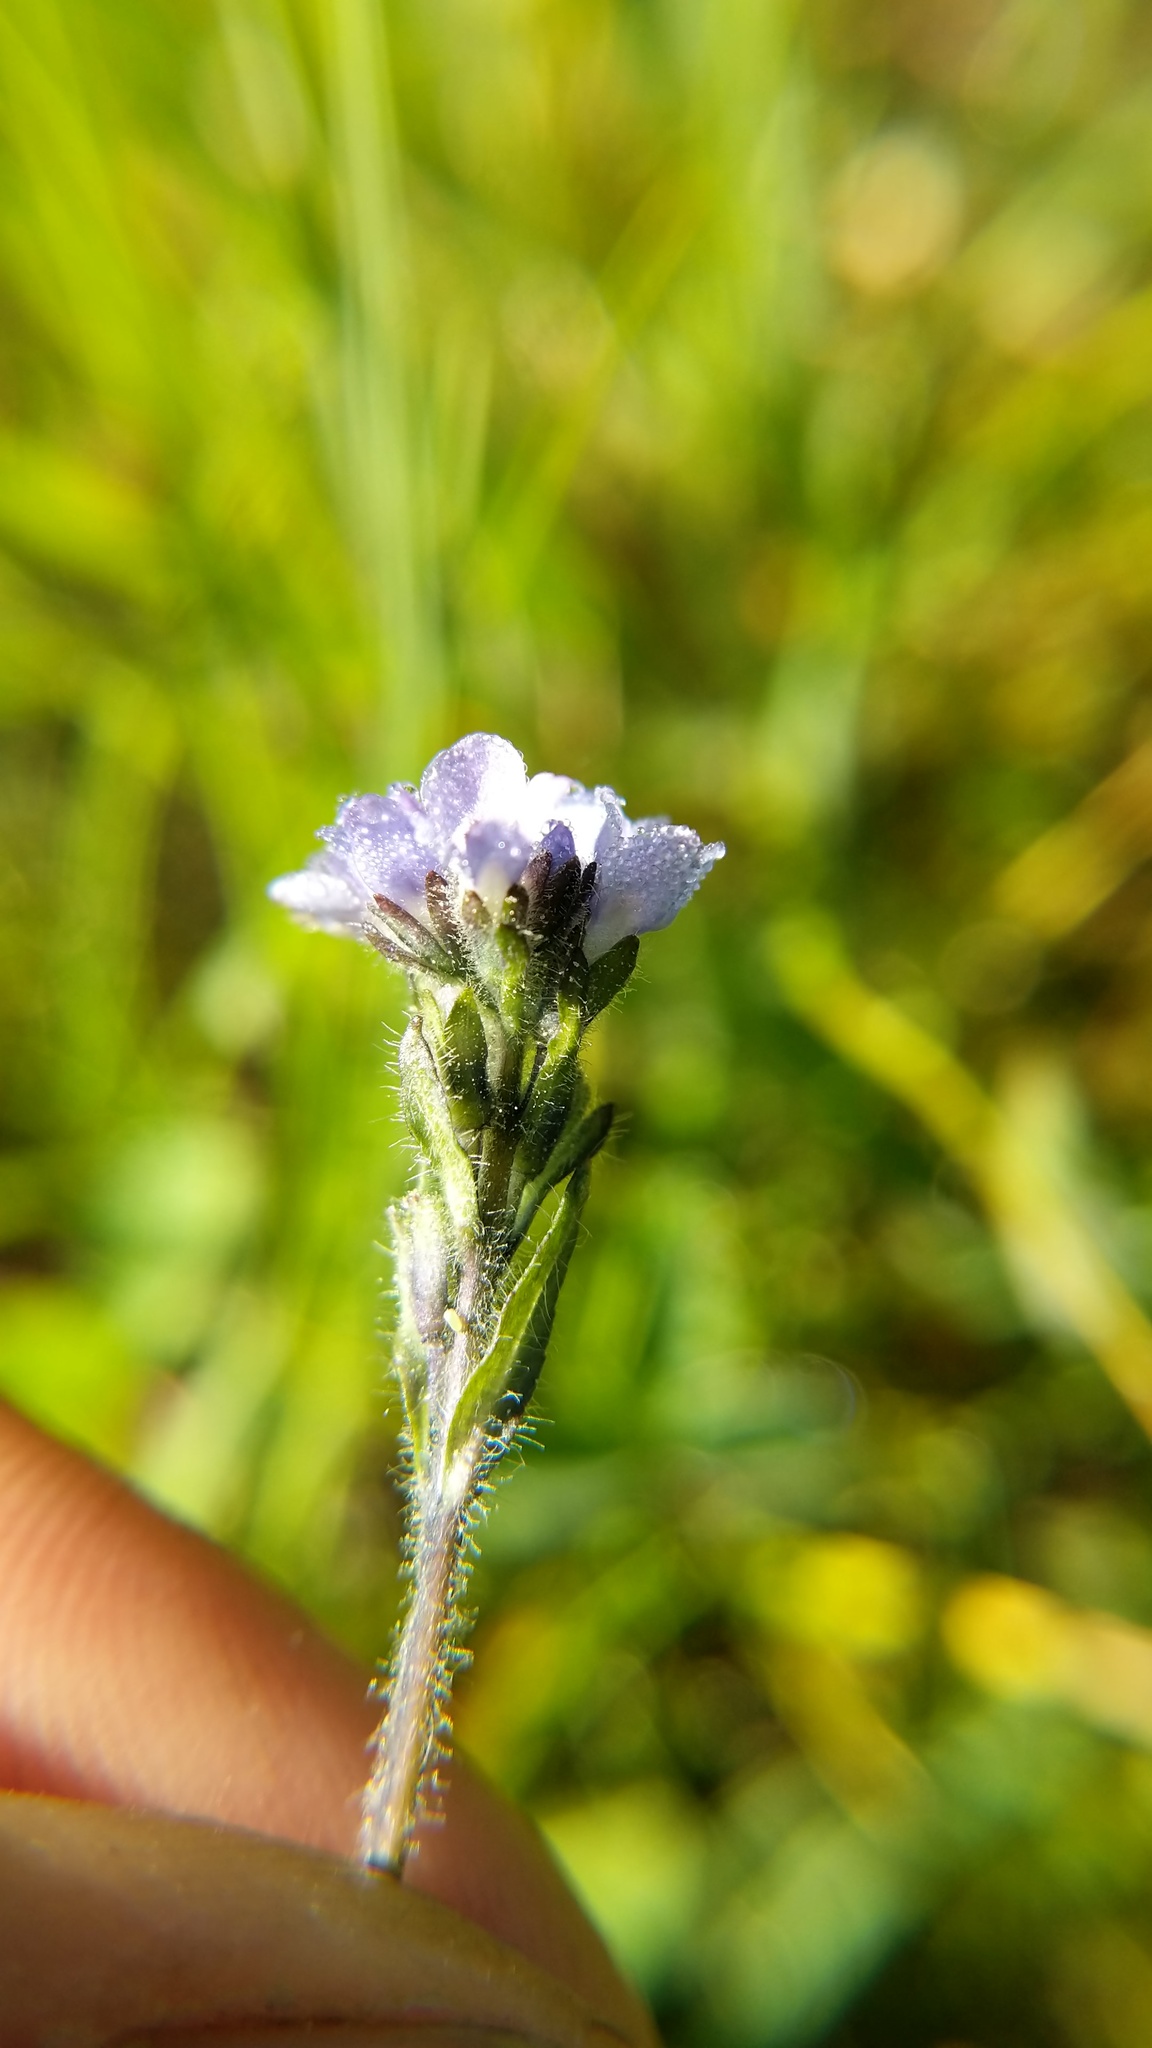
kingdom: Plantae
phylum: Tracheophyta
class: Magnoliopsida
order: Lamiales
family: Plantaginaceae
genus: Veronica
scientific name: Veronica wormskjoldii
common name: American alpine speedwell
